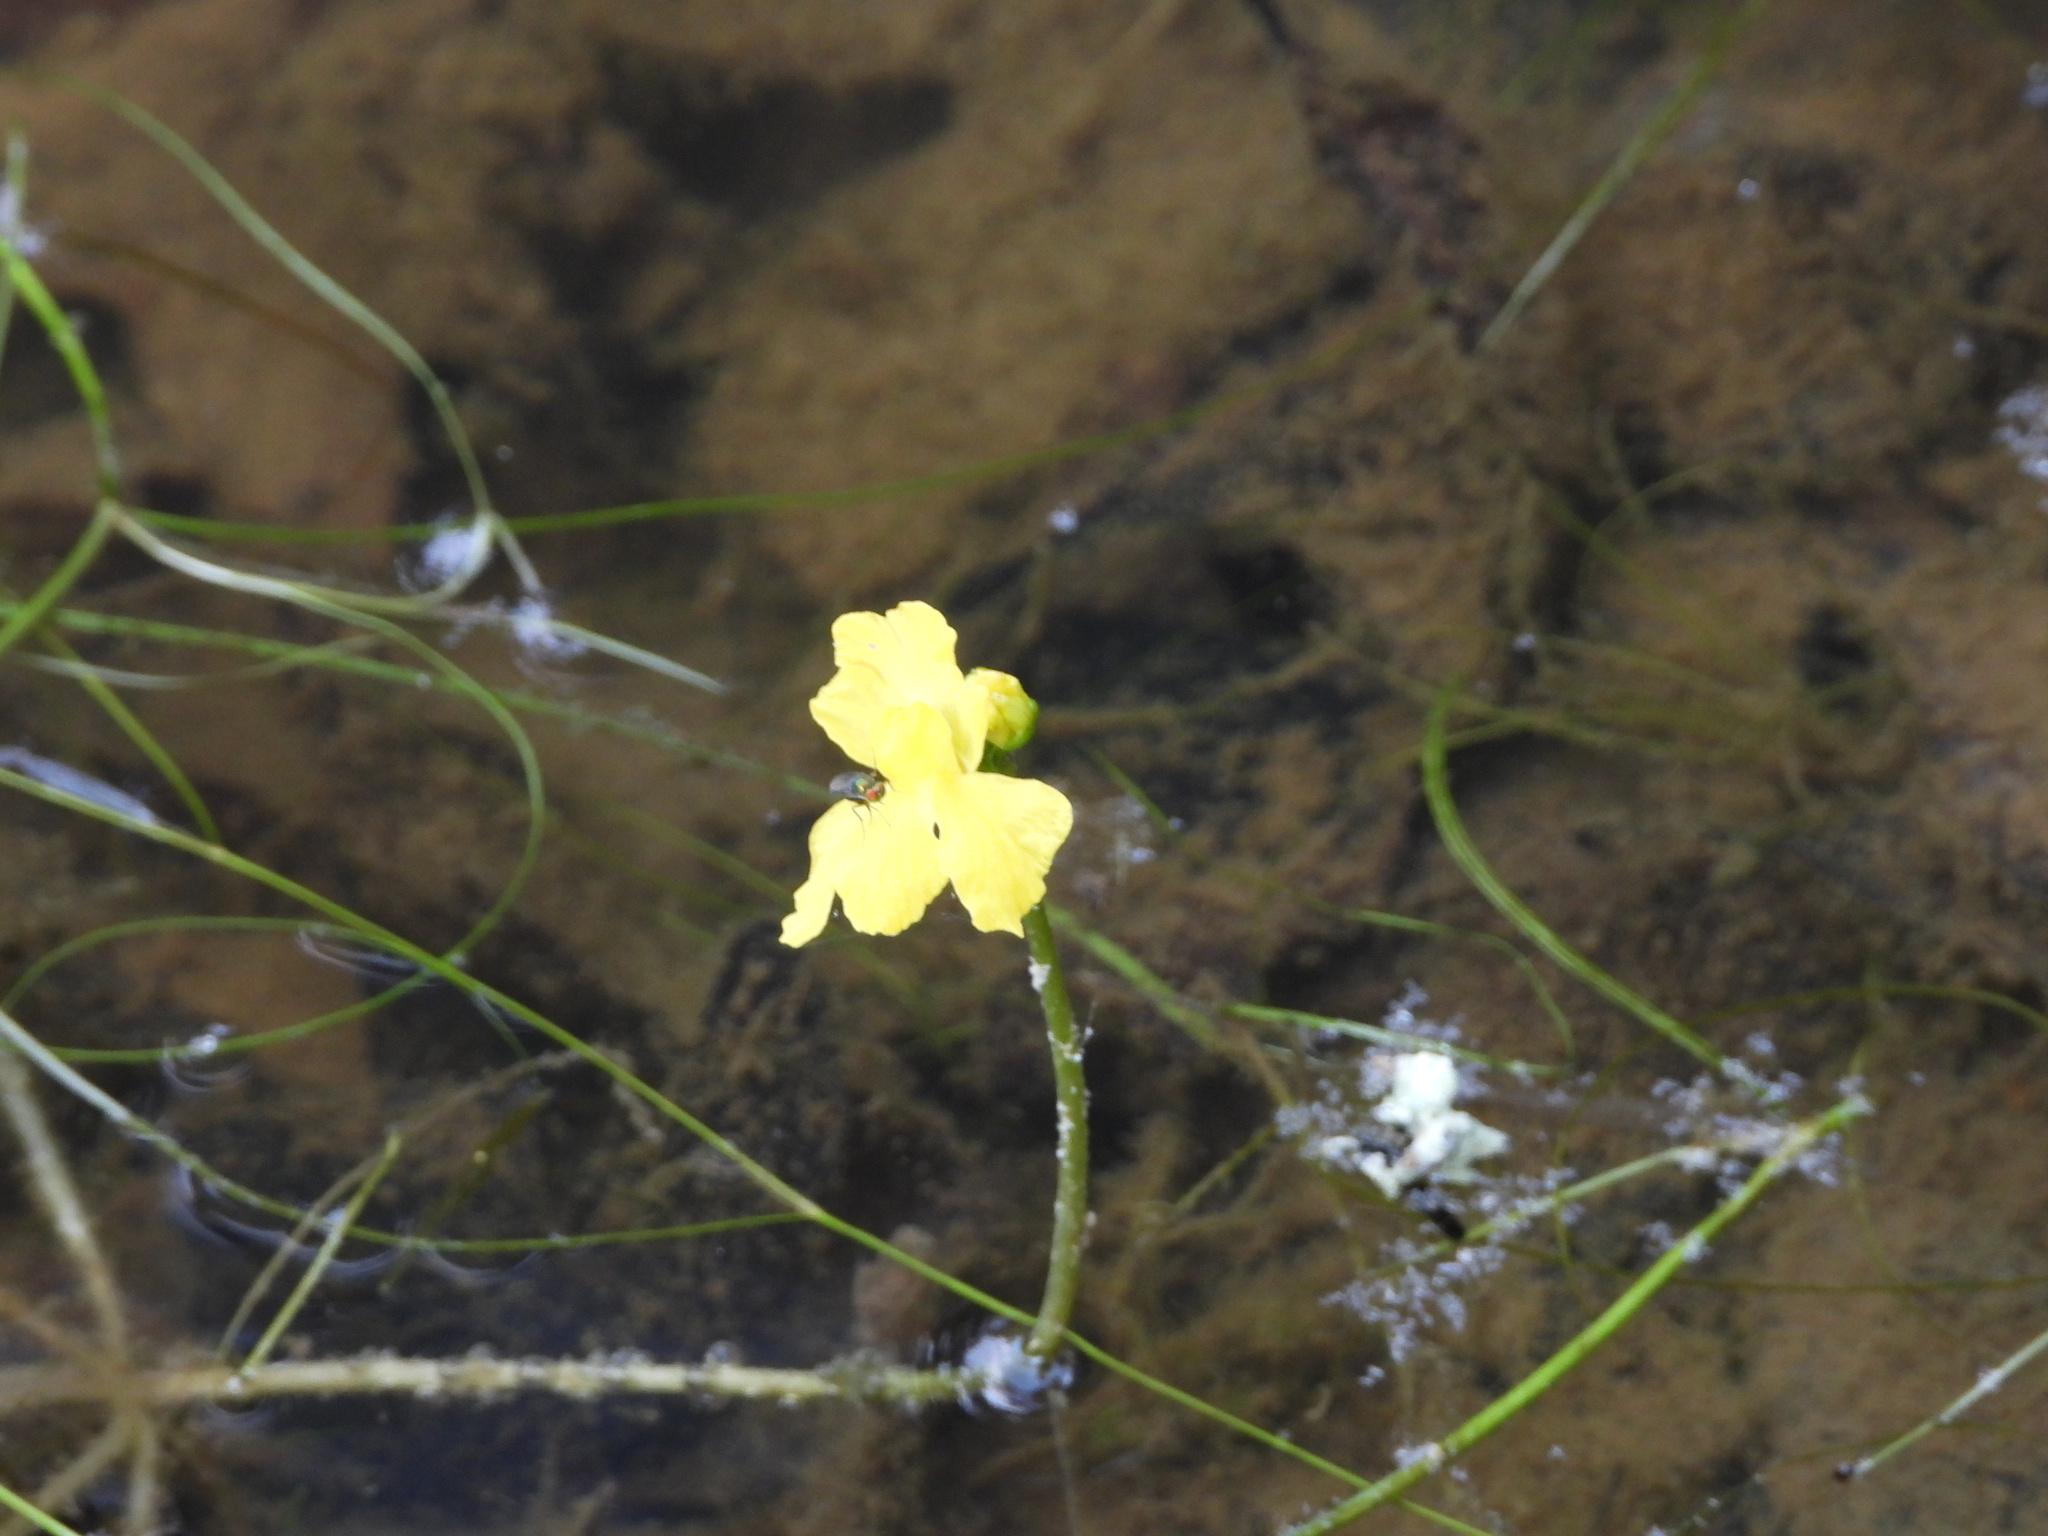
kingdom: Plantae
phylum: Tracheophyta
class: Magnoliopsida
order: Lamiales
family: Lentibulariaceae
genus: Utricularia
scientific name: Utricularia inflata
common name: Floating bladderwort
